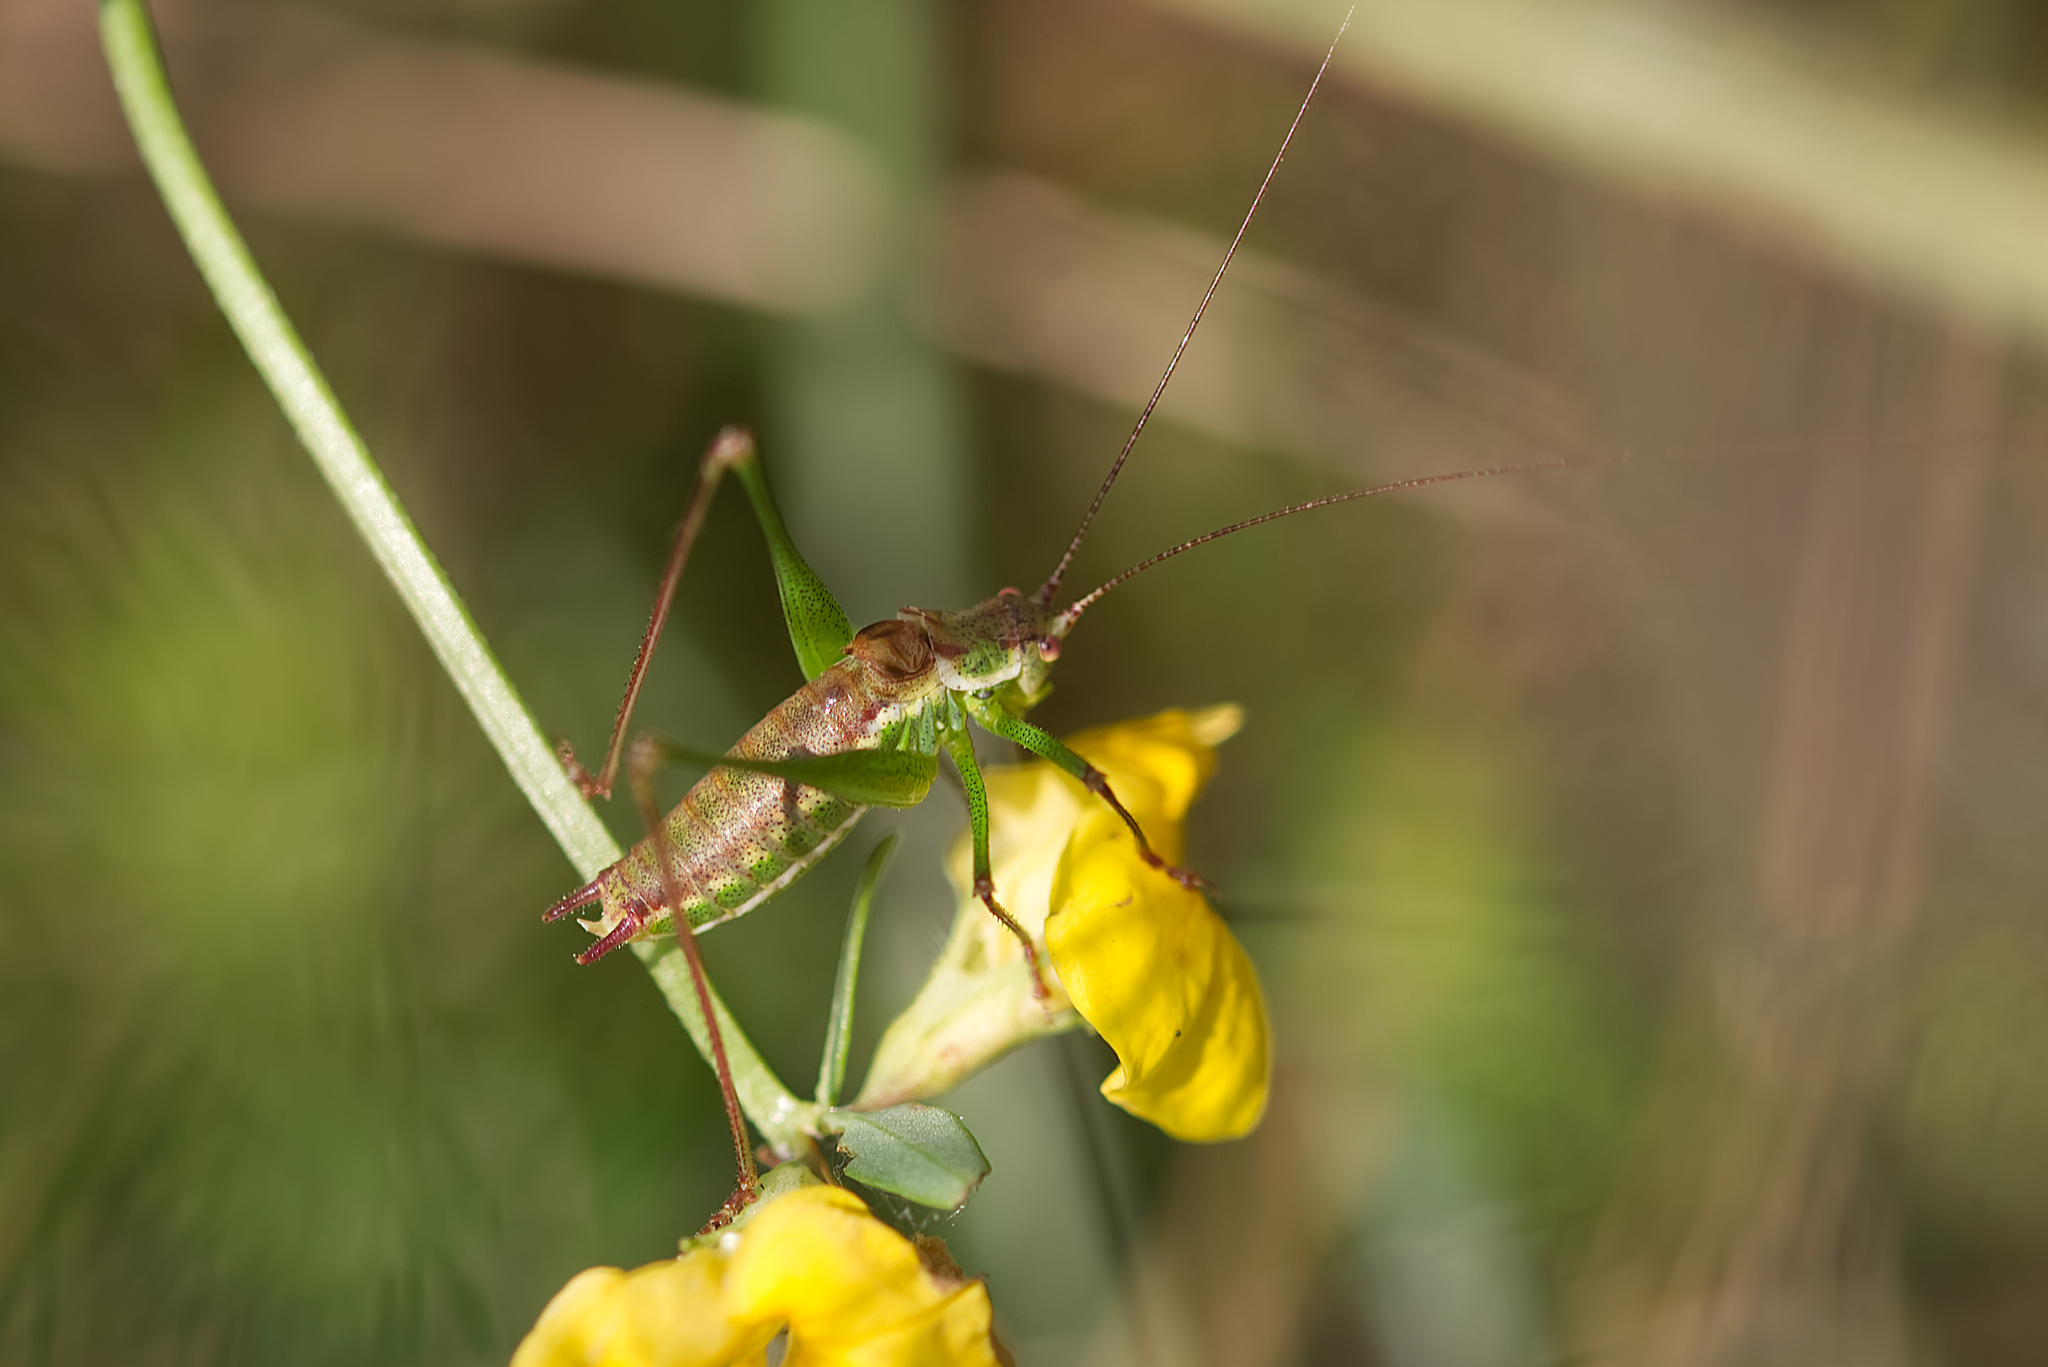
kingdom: Animalia
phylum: Arthropoda
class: Insecta
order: Orthoptera
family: Tettigoniidae
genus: Leptophyes
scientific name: Leptophyes albovittata
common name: Striped bush-cricket
